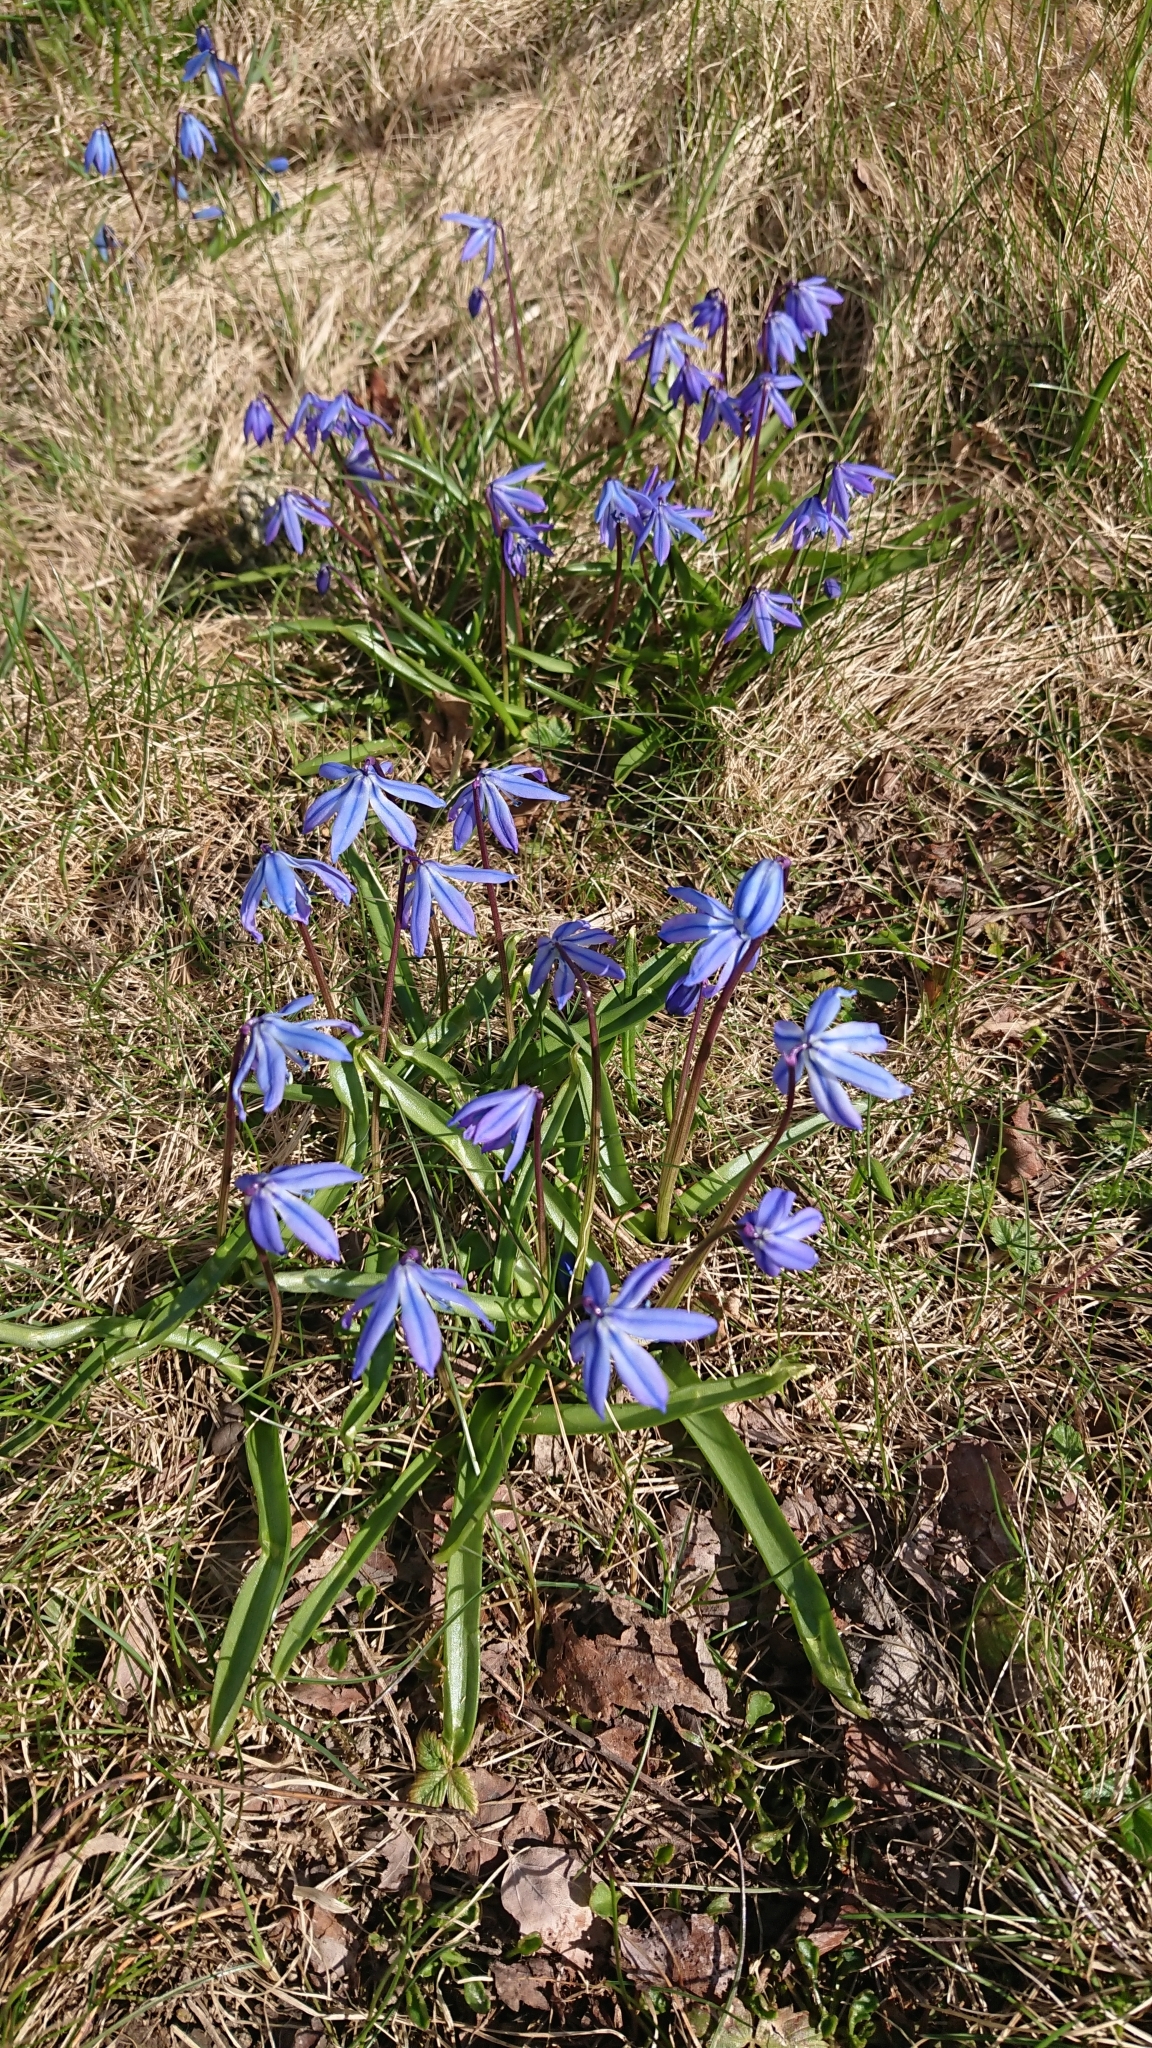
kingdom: Plantae
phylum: Tracheophyta
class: Liliopsida
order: Asparagales
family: Asparagaceae
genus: Scilla
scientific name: Scilla siberica
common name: Siberian squill
